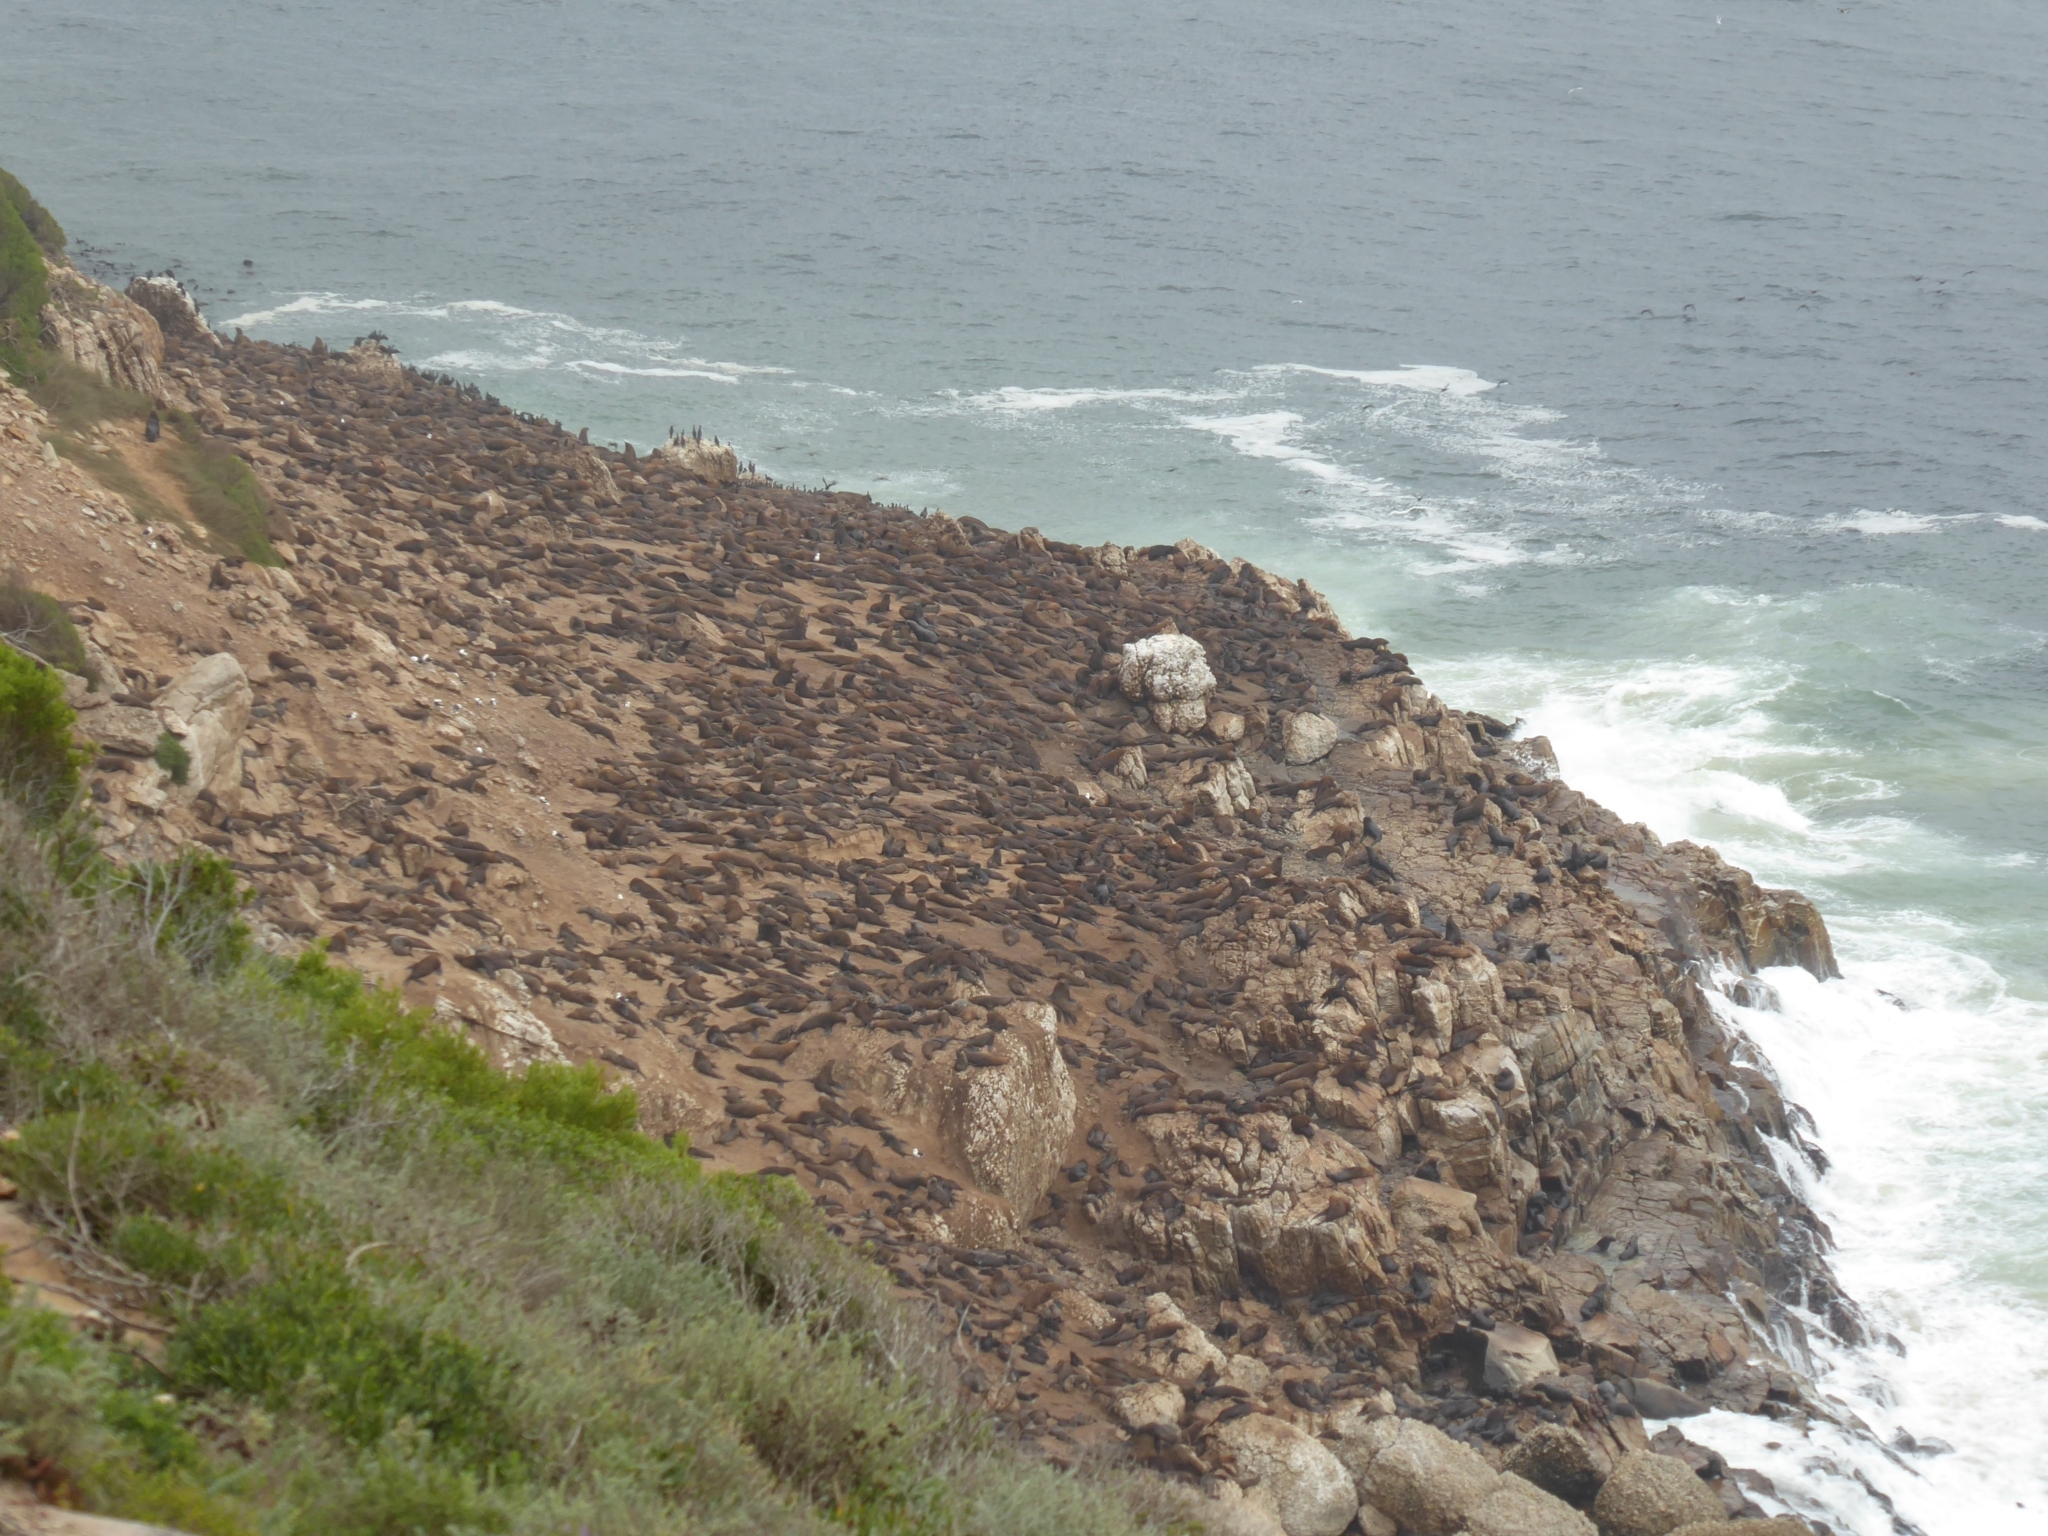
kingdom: Animalia
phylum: Chordata
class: Mammalia
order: Carnivora
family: Otariidae
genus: Arctocephalus
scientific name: Arctocephalus pusillus
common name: Brown fur seal
